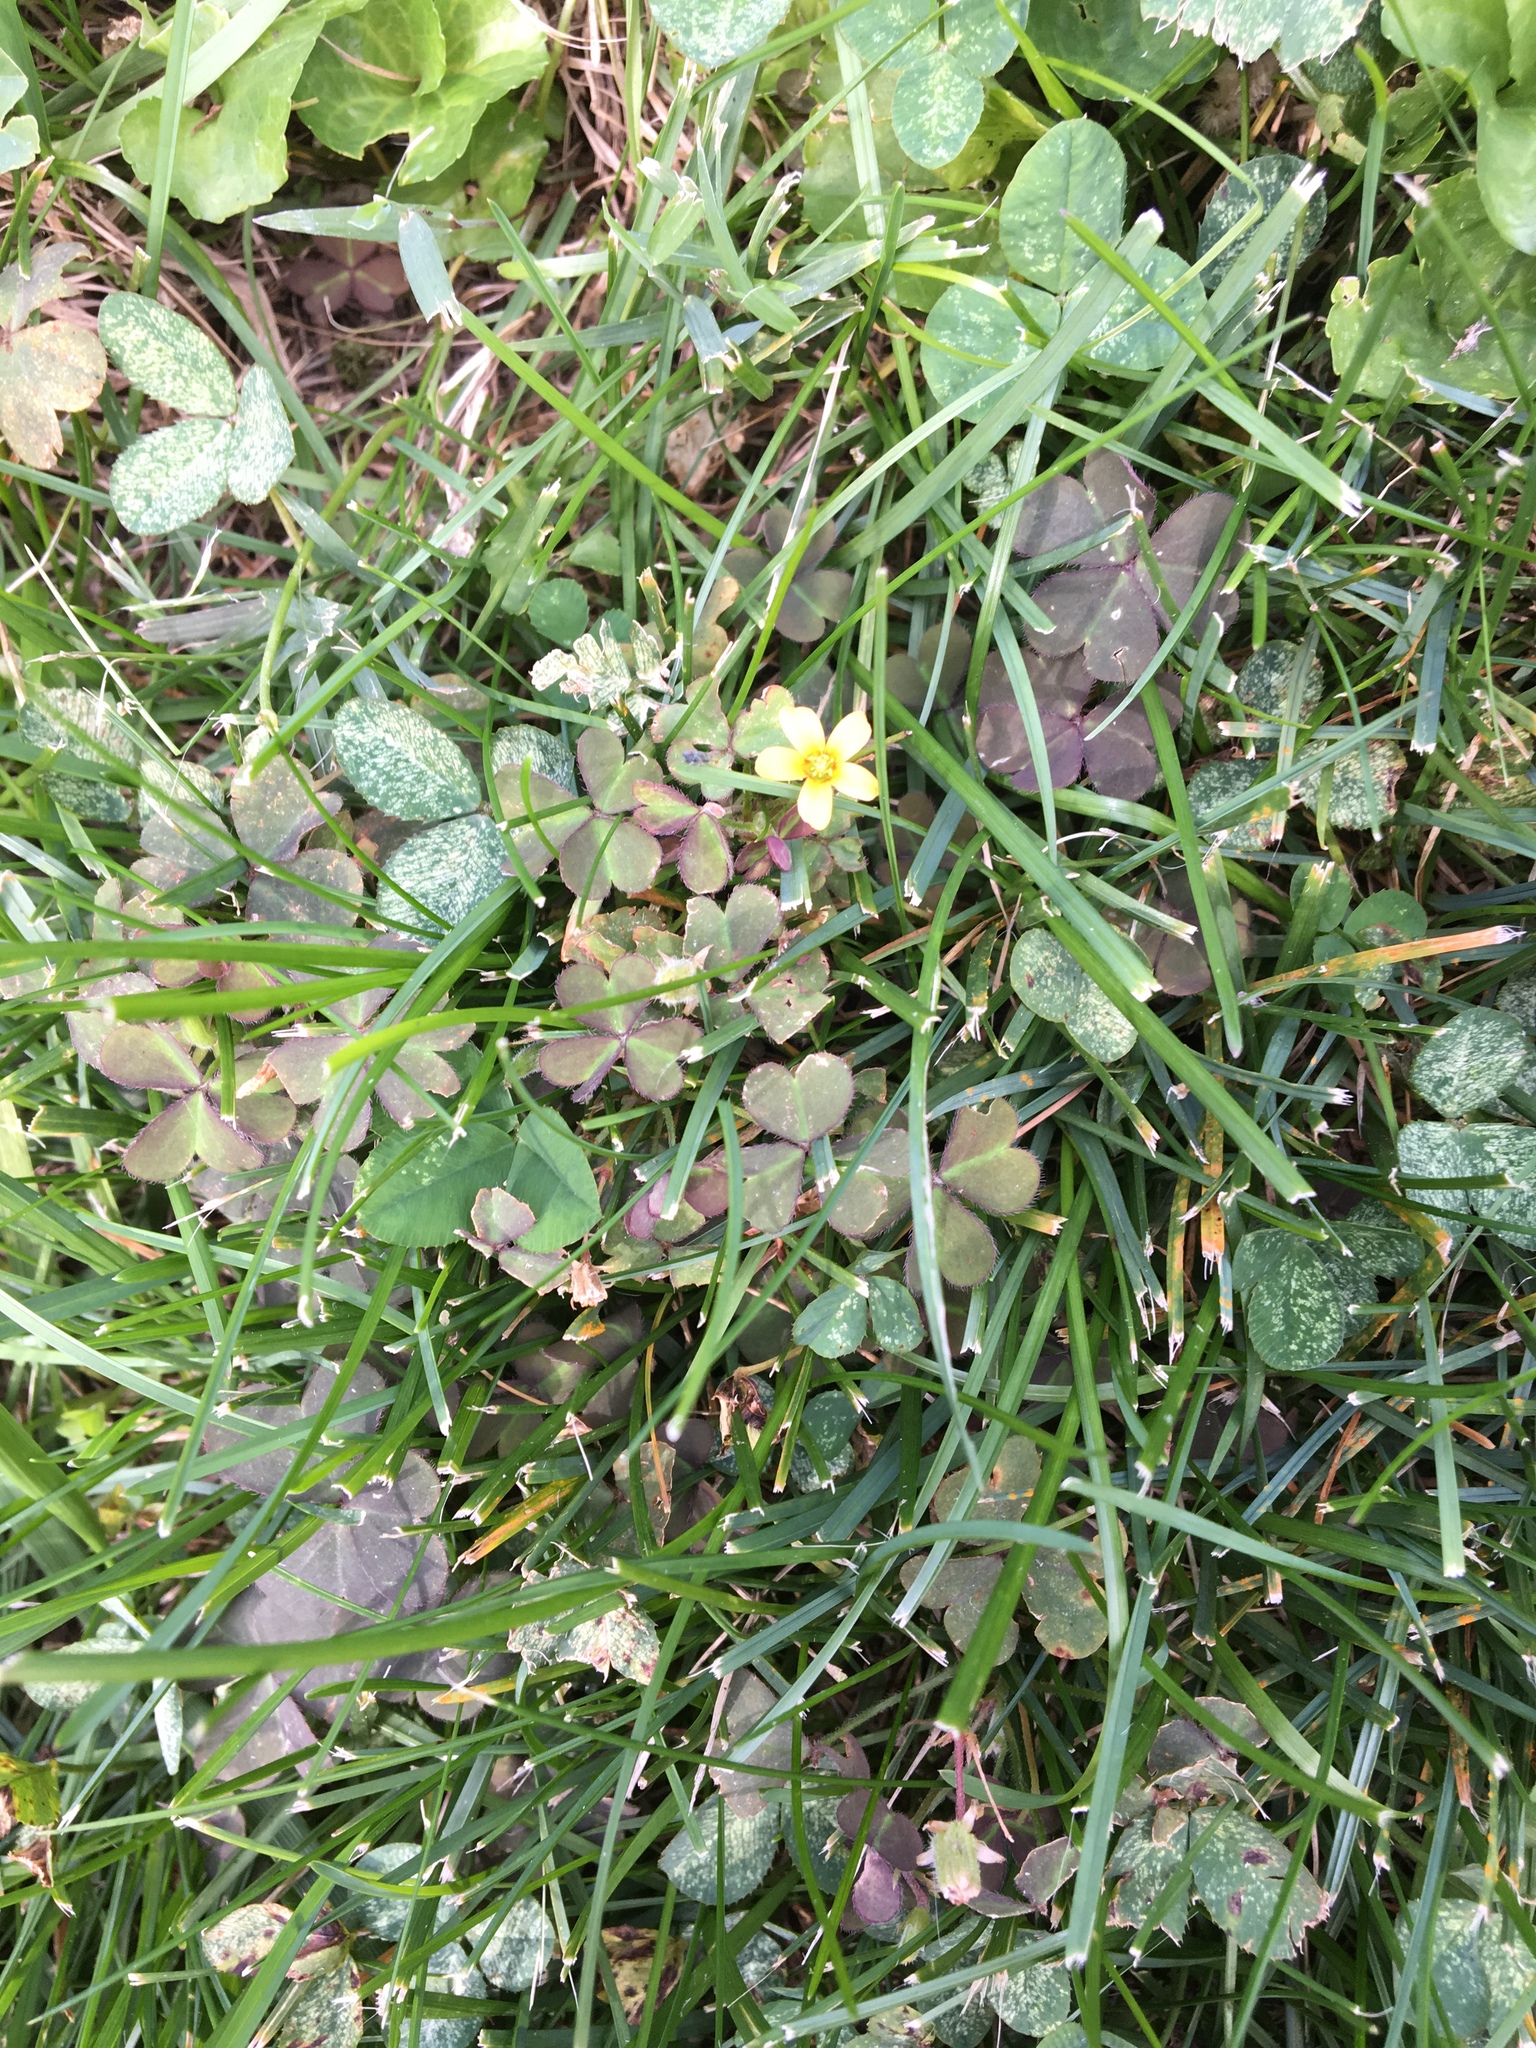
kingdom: Plantae
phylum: Tracheophyta
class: Magnoliopsida
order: Oxalidales
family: Oxalidaceae
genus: Oxalis
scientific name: Oxalis corniculata
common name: Procumbent yellow-sorrel
